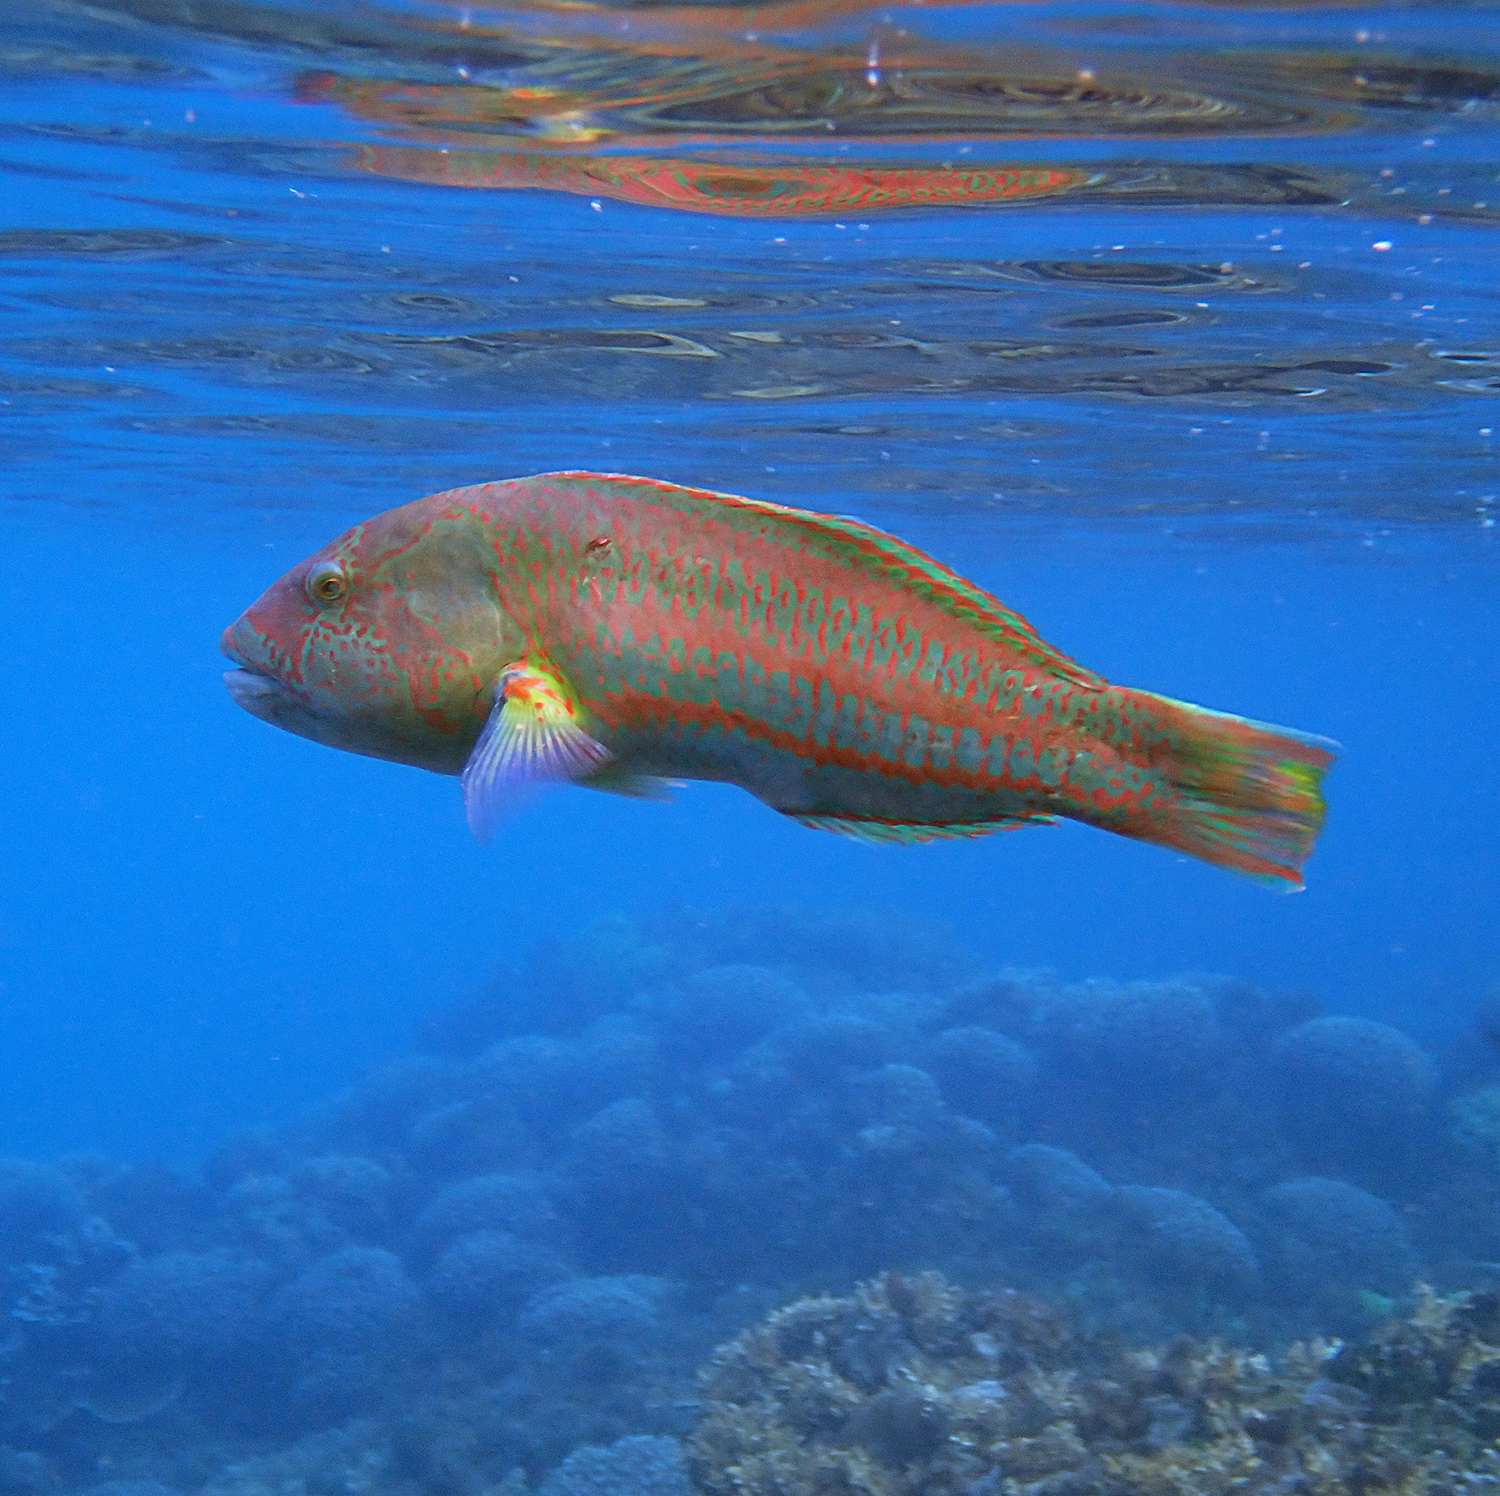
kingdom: Animalia
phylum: Chordata
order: Perciformes
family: Labridae
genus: Thalassoma
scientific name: Thalassoma purpureum
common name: Parrotfish
